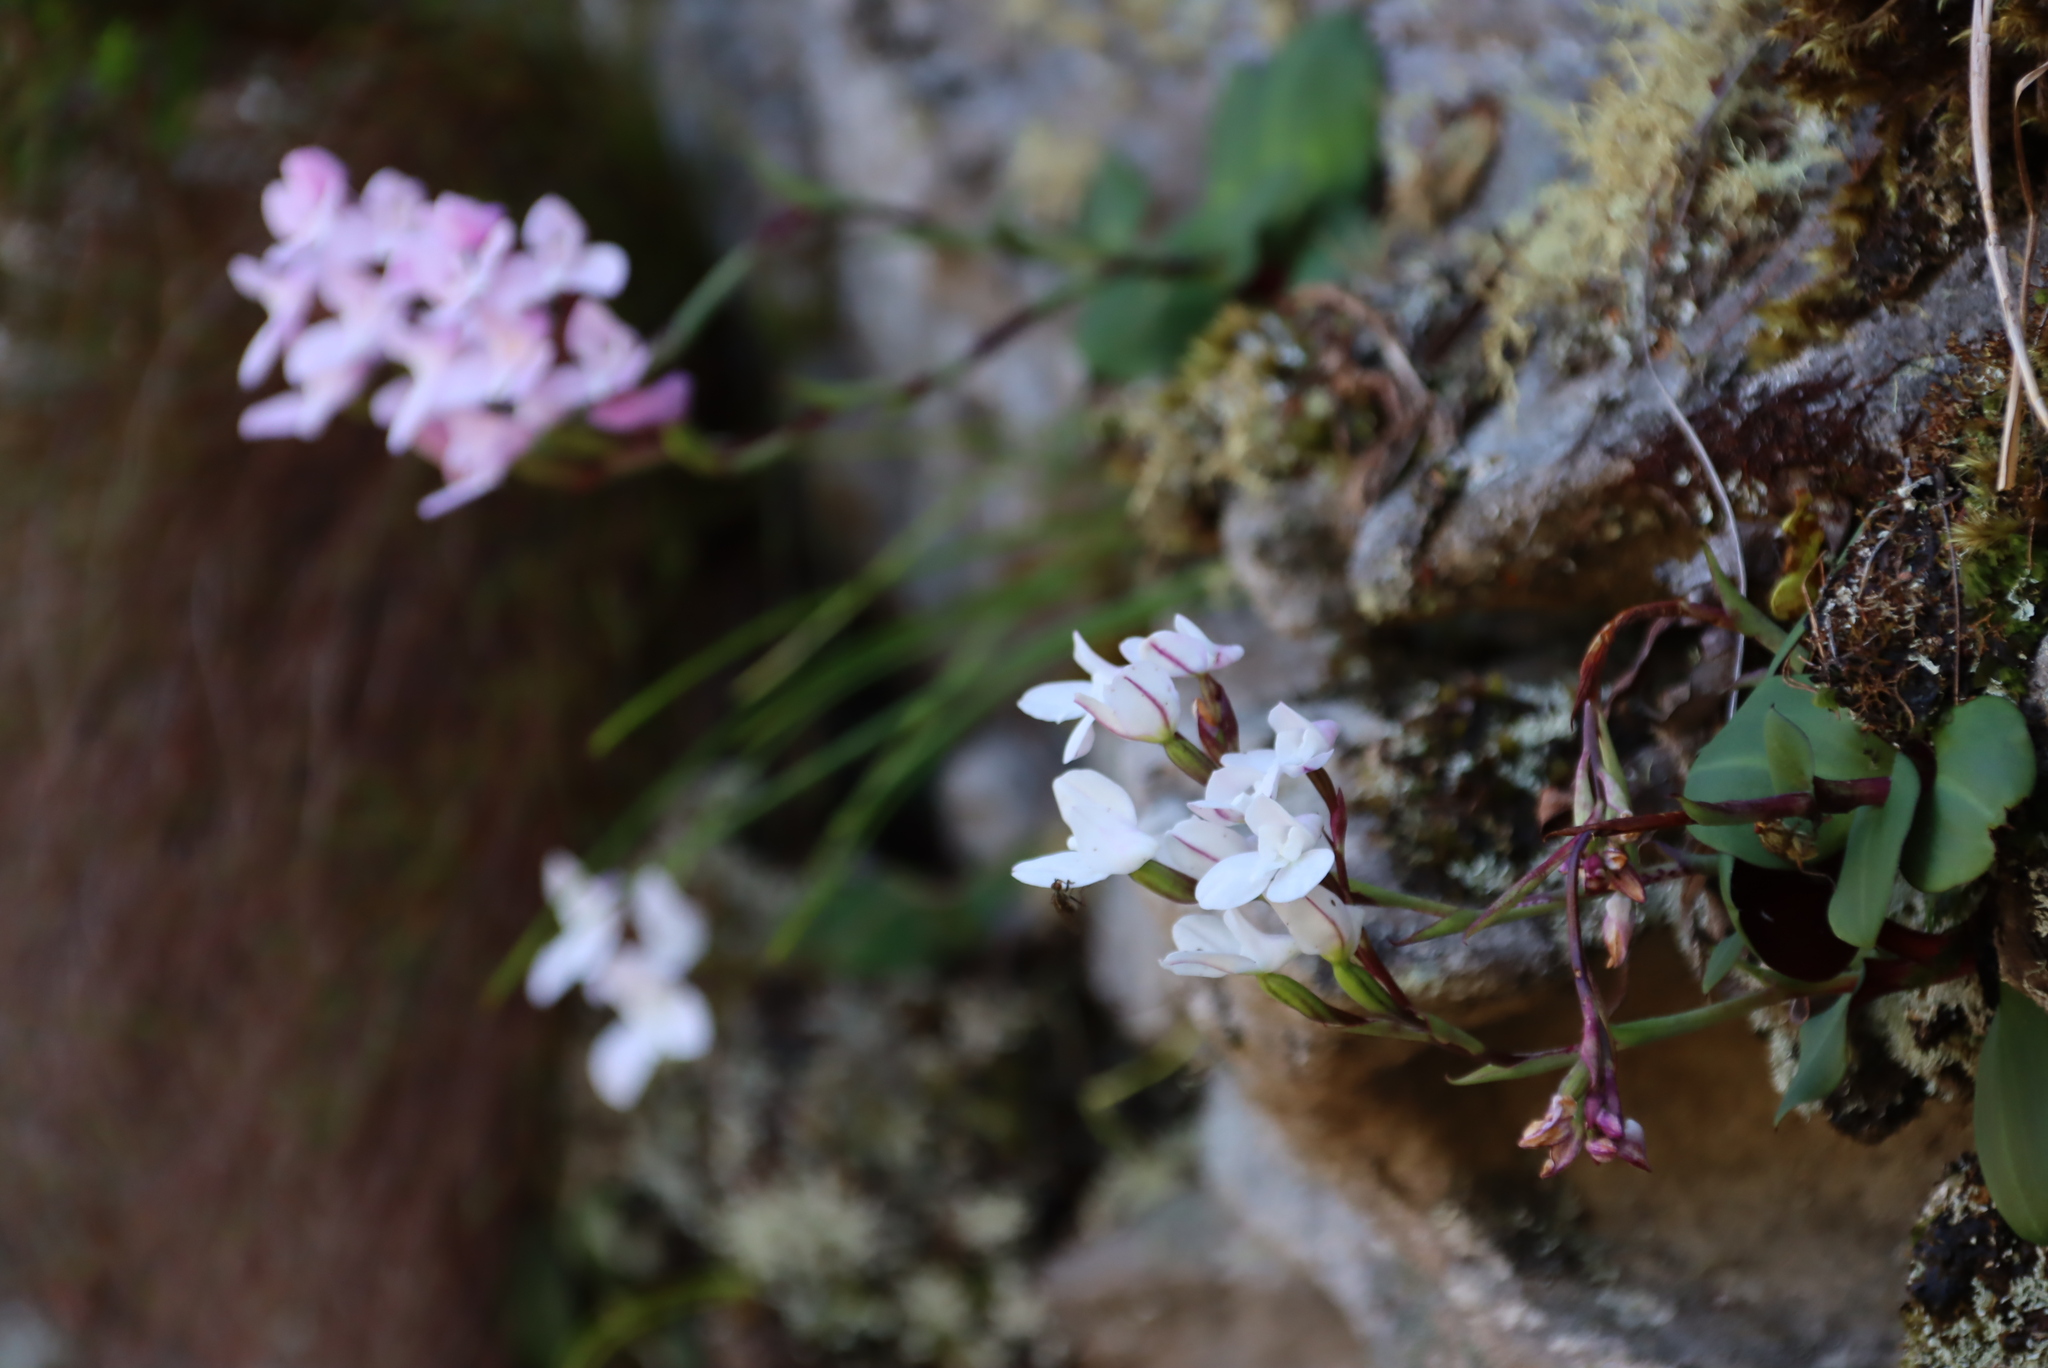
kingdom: Plantae
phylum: Tracheophyta
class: Liliopsida
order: Asparagales
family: Orchidaceae
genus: Disa
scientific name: Disa rosea
